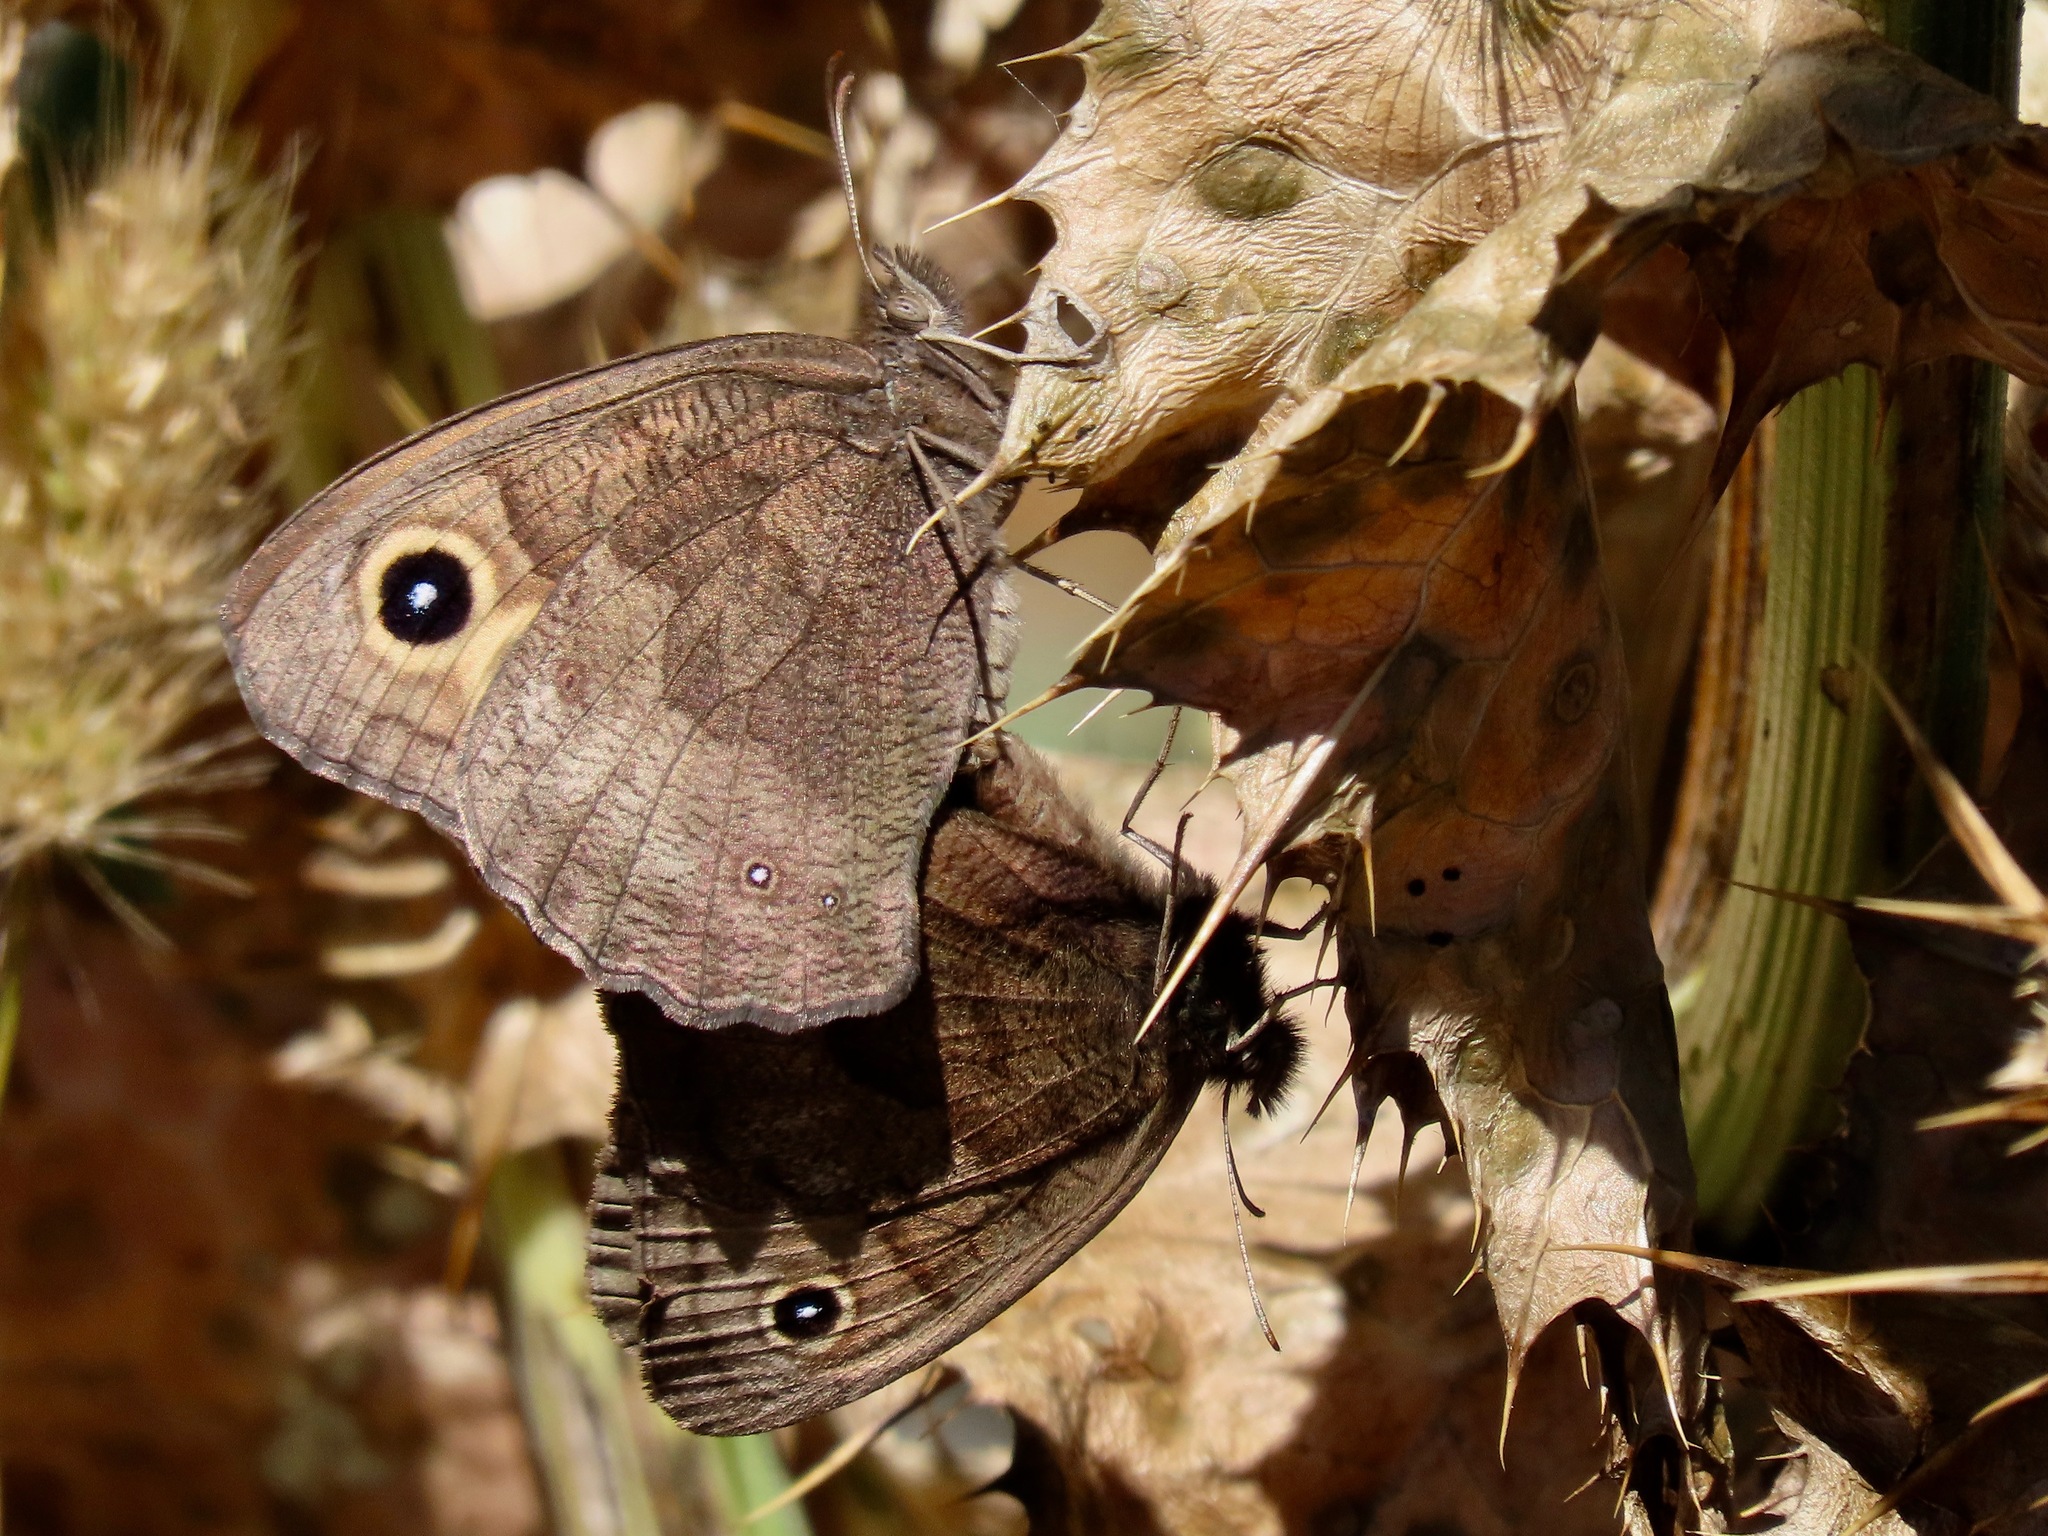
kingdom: Animalia
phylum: Arthropoda
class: Insecta
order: Lepidoptera
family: Nymphalidae
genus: Cercyonis
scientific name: Cercyonis pegala
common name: Common wood-nymph
